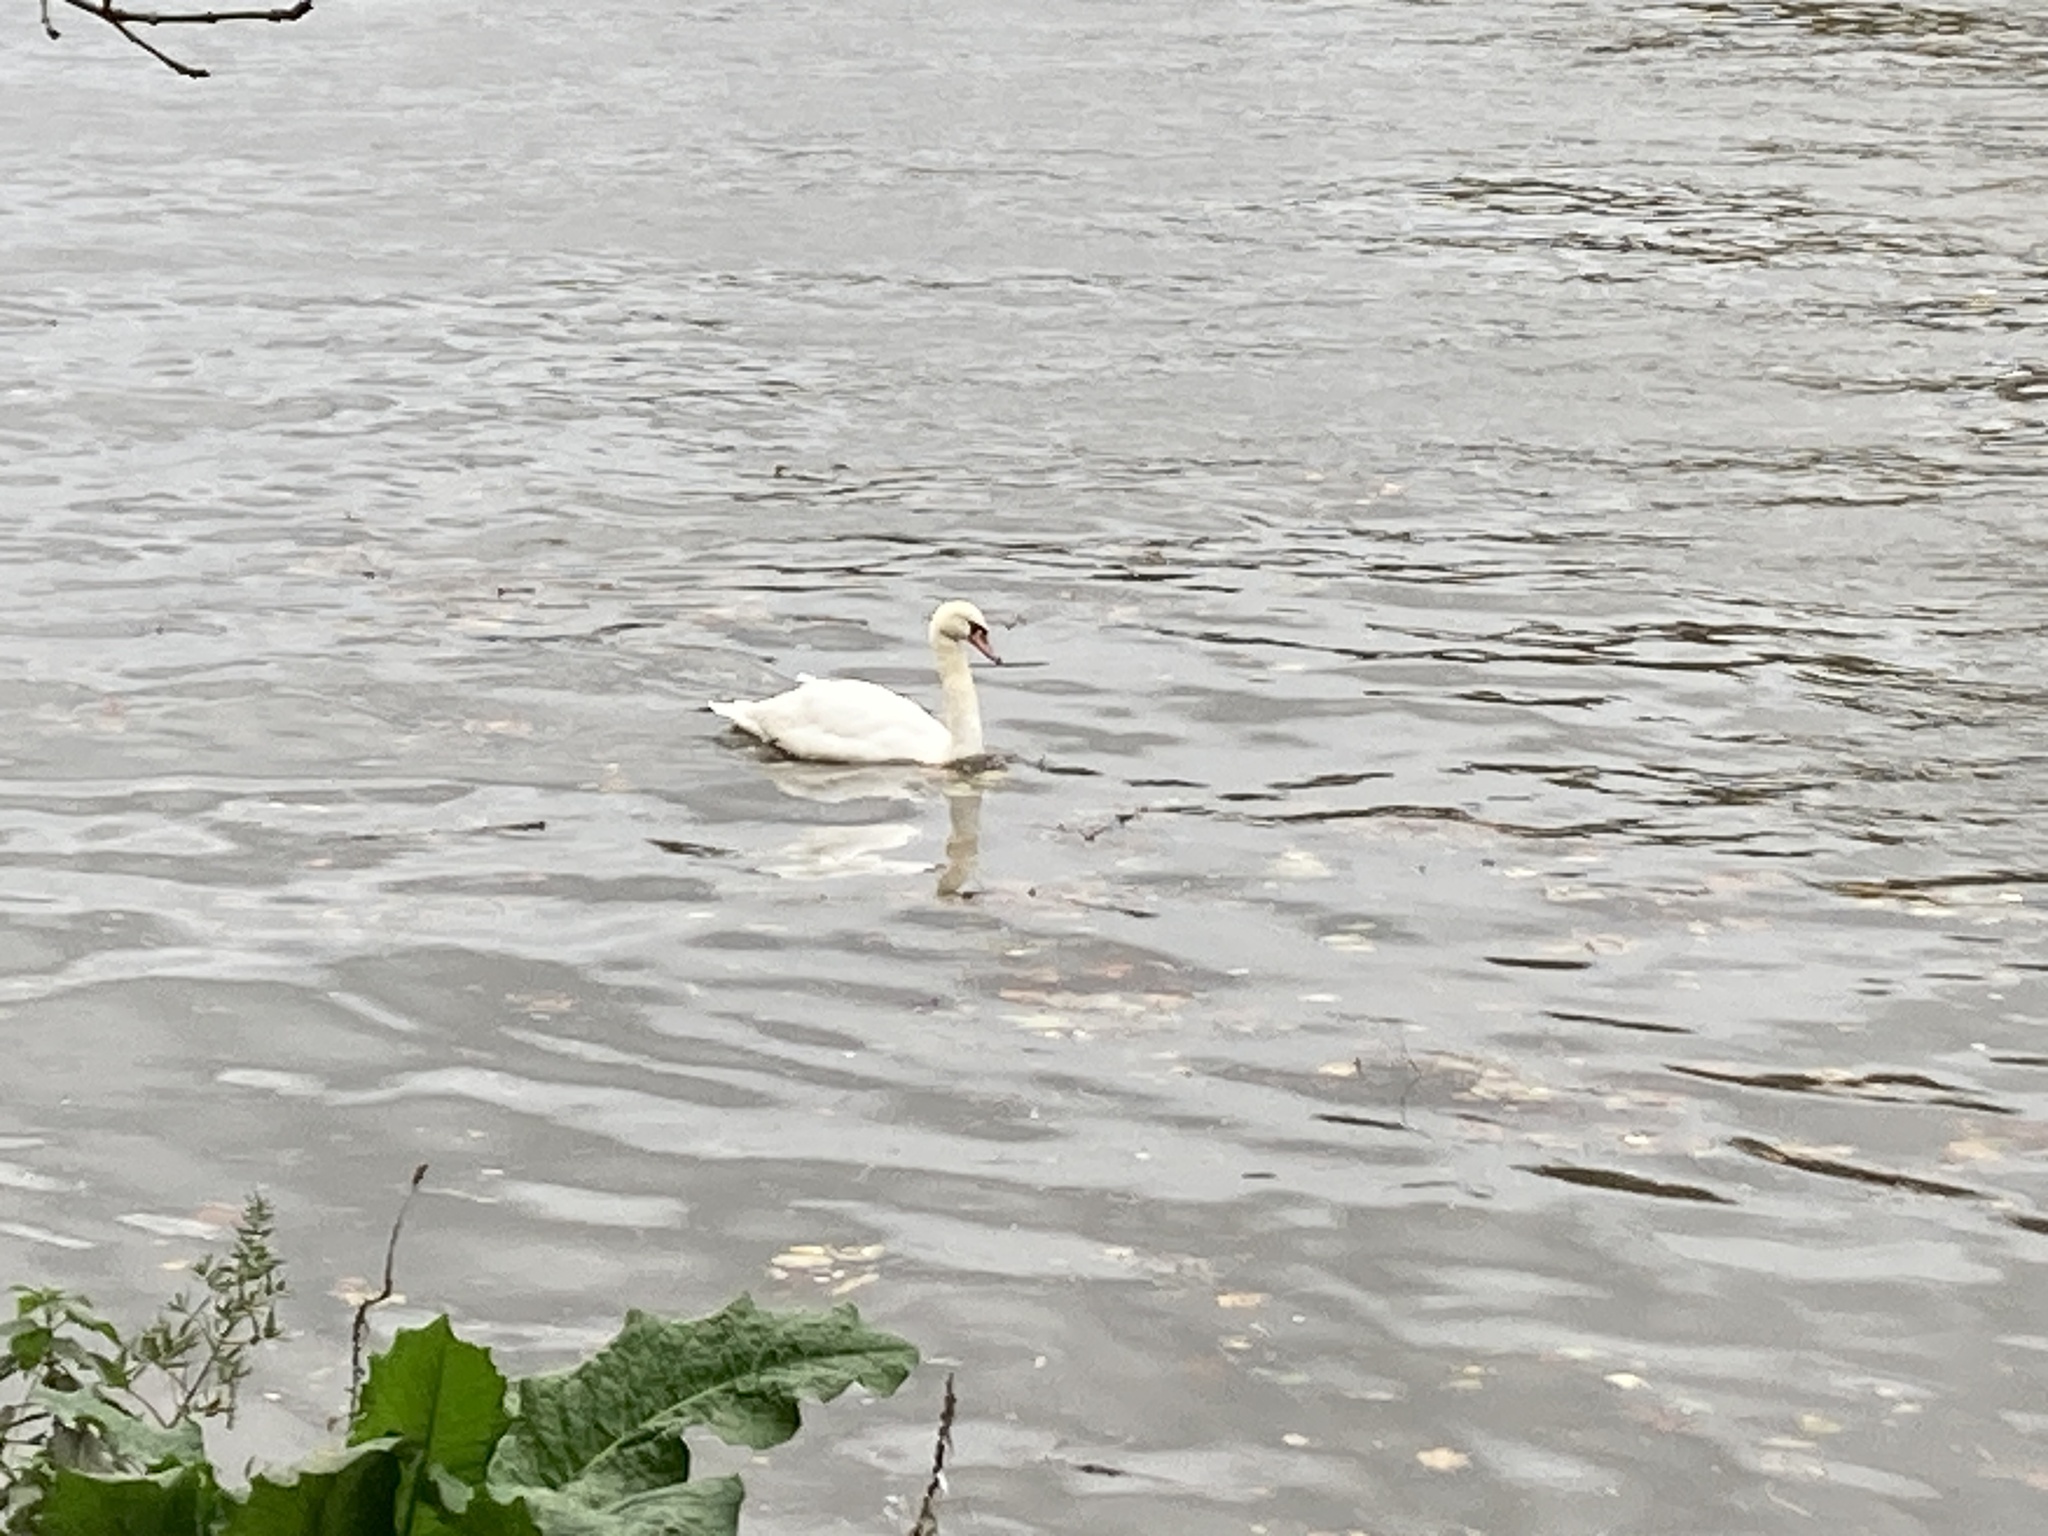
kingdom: Animalia
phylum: Chordata
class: Aves
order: Anseriformes
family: Anatidae
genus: Cygnus
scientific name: Cygnus olor
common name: Mute swan
